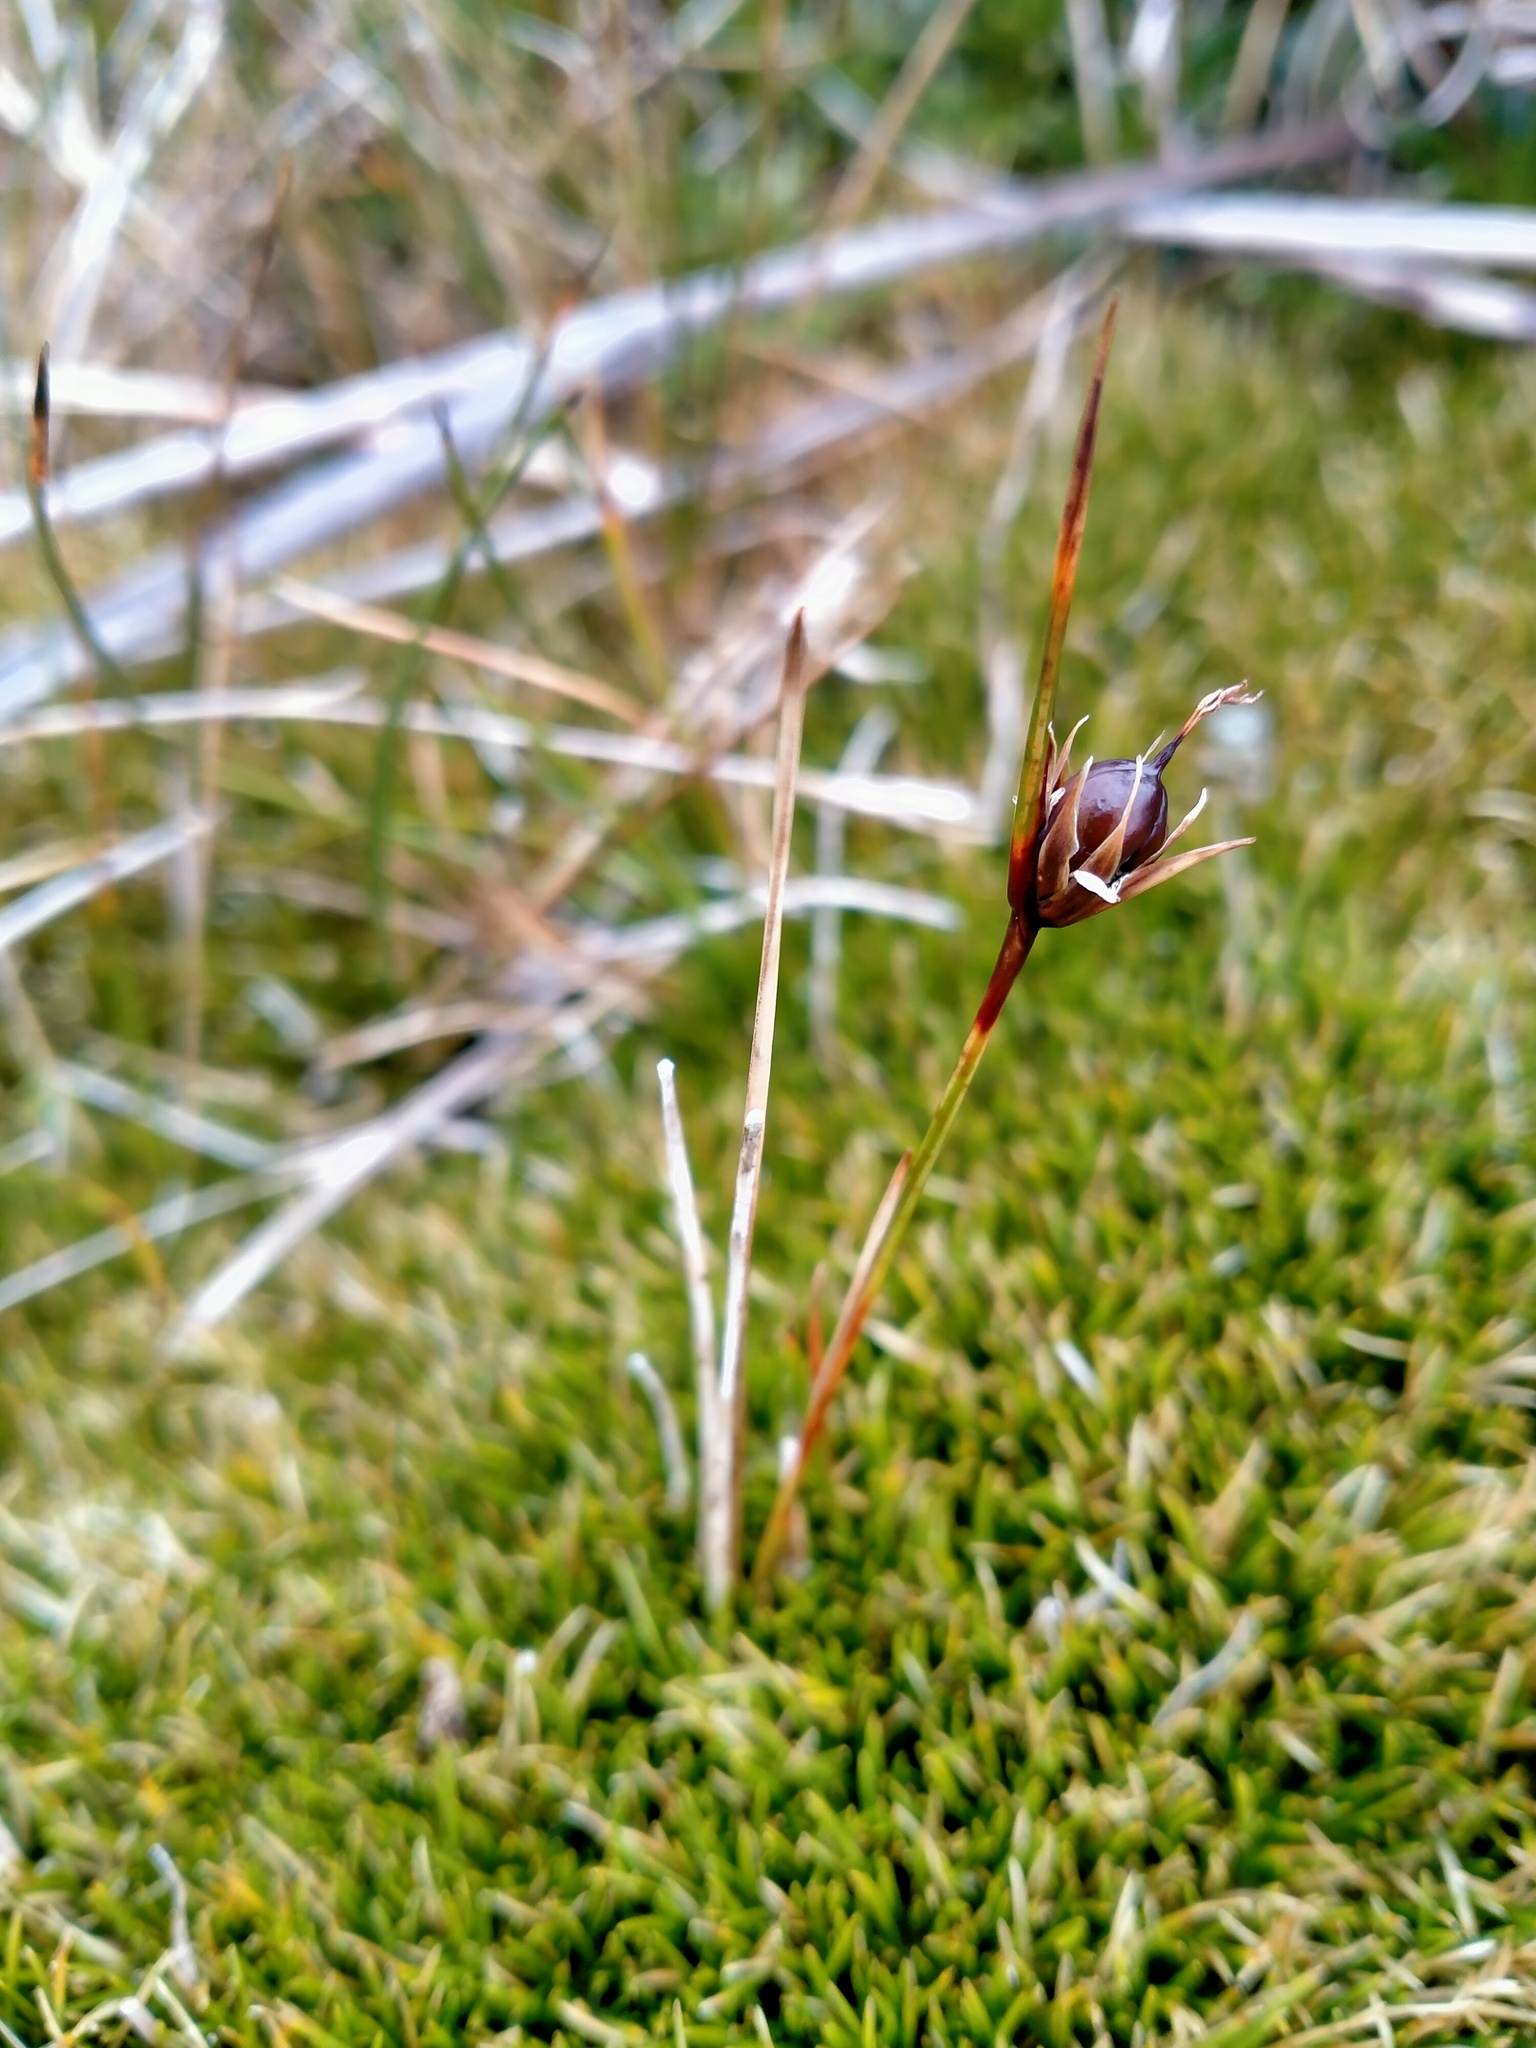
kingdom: Plantae
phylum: Tracheophyta
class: Liliopsida
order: Poales
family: Juncaceae
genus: Rostkovia
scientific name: Rostkovia magellanica
